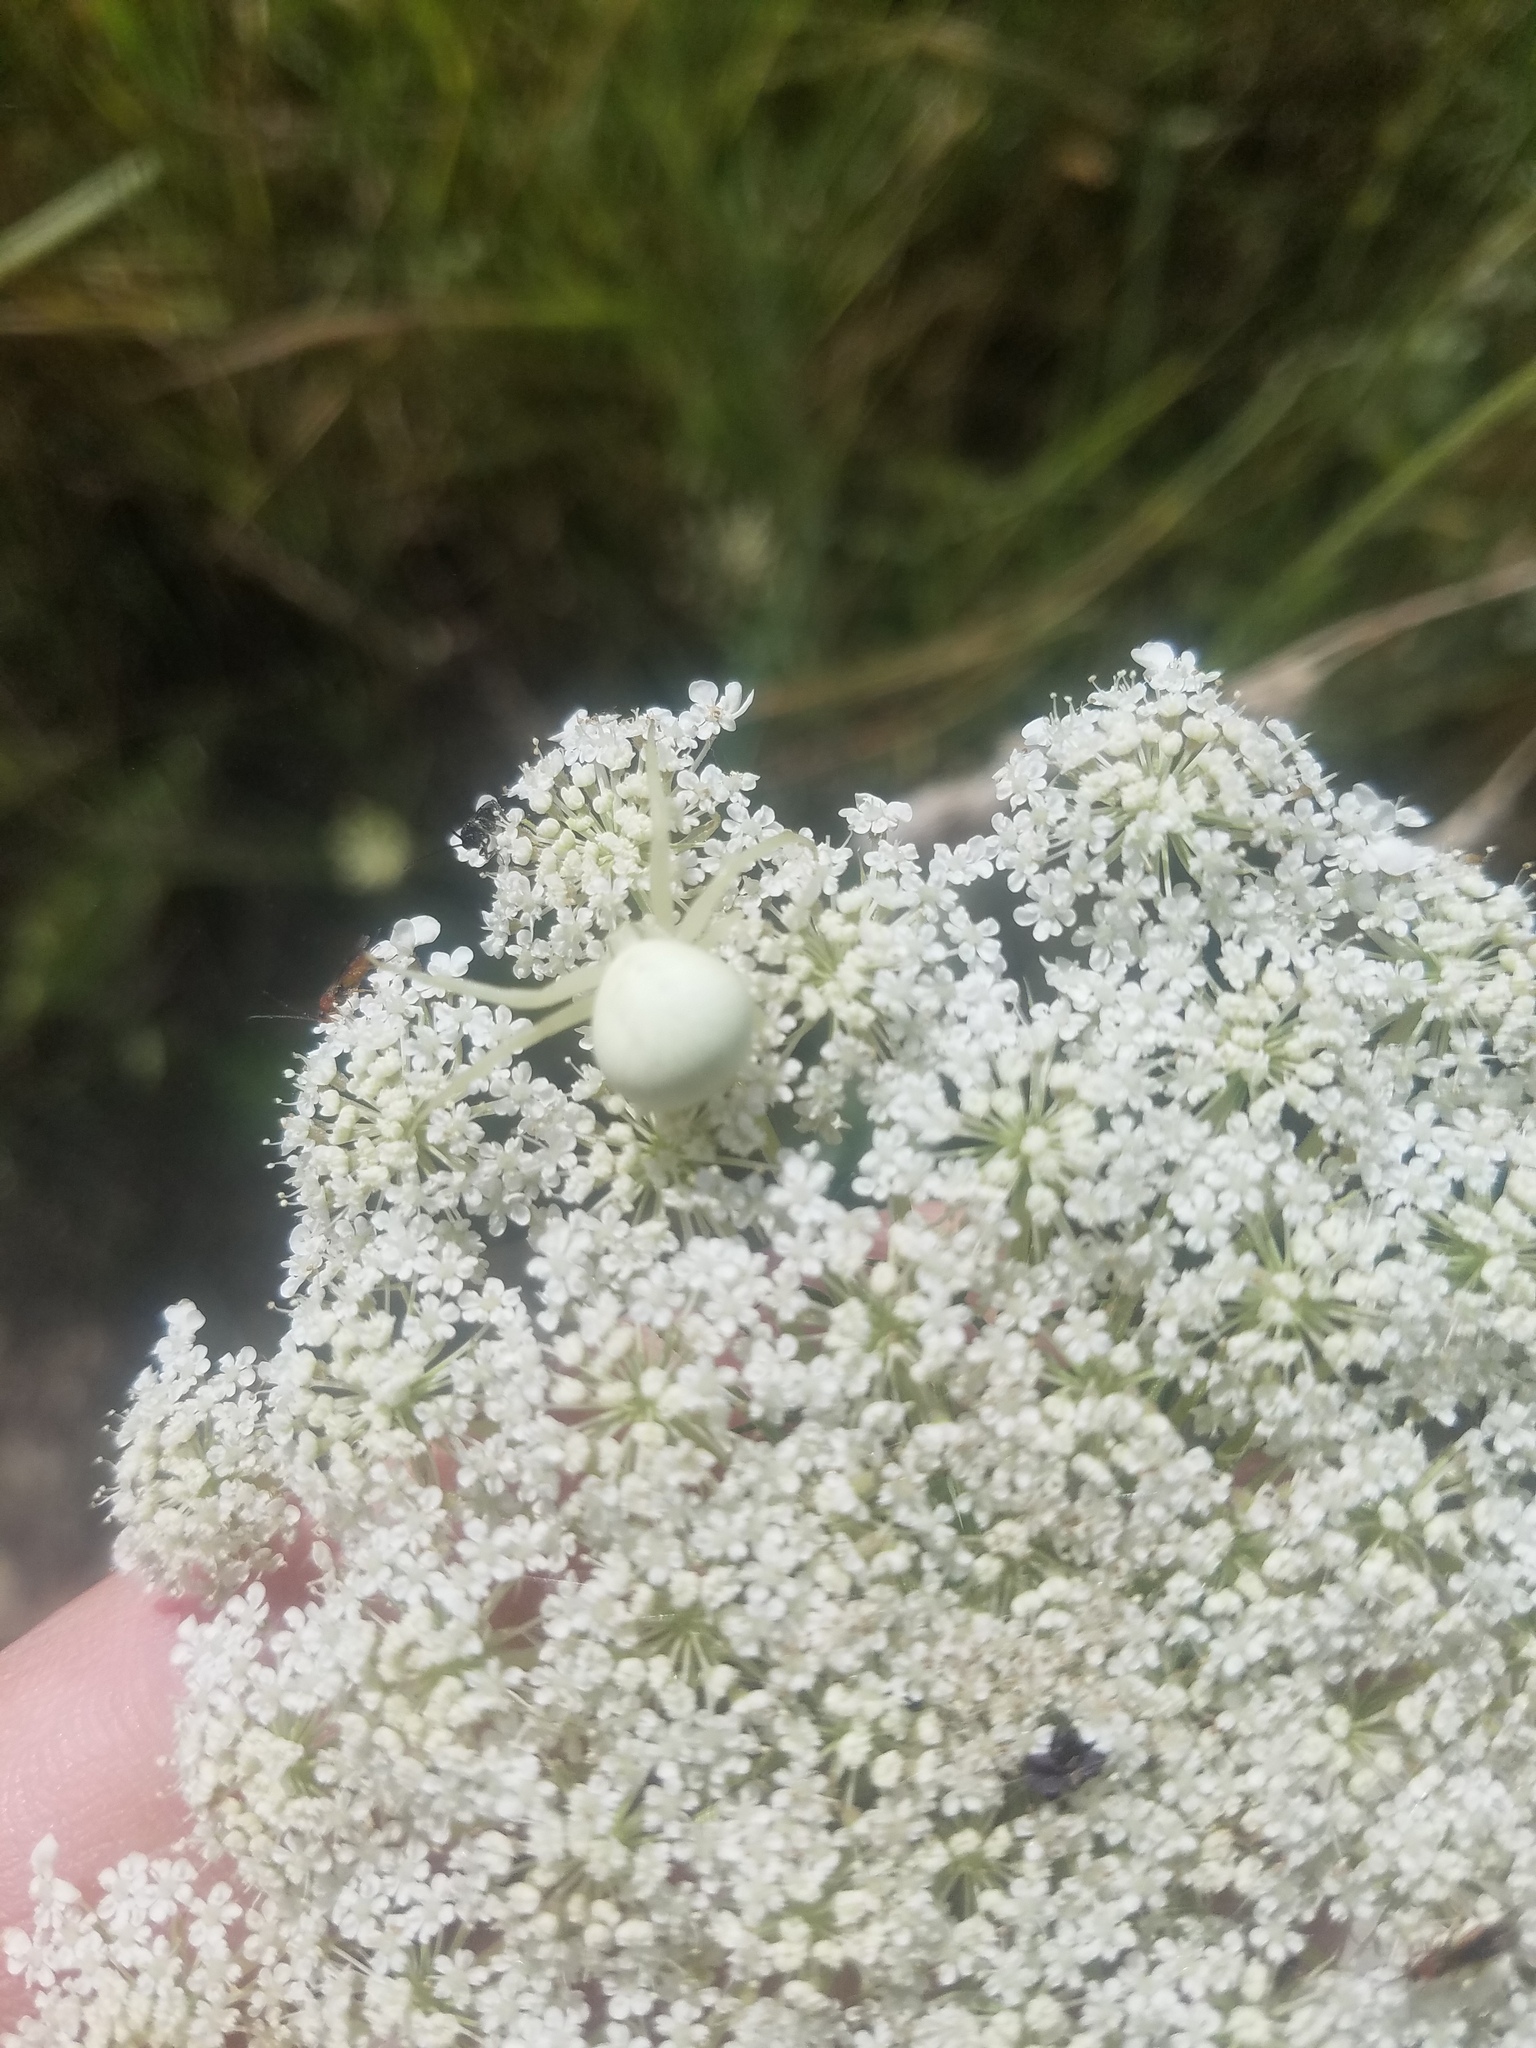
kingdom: Animalia
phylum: Arthropoda
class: Arachnida
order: Araneae
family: Thomisidae
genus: Misumena
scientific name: Misumena vatia
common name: Goldenrod crab spider
